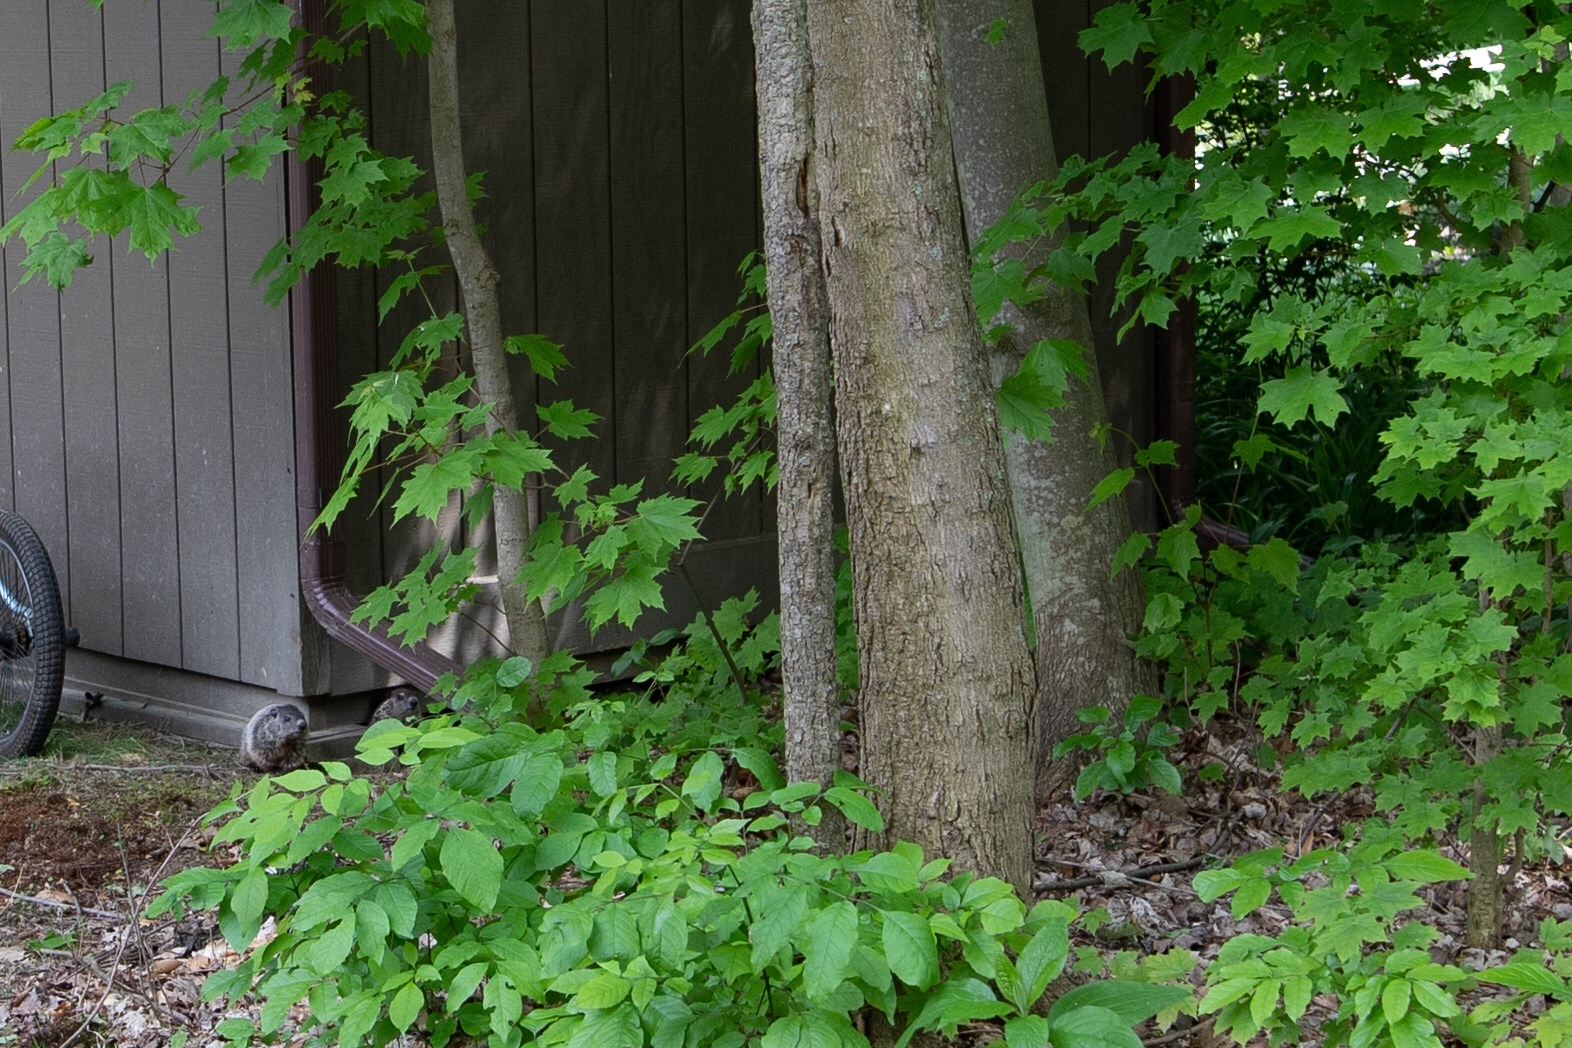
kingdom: Animalia
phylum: Chordata
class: Mammalia
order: Rodentia
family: Sciuridae
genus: Marmota
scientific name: Marmota monax
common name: Groundhog
